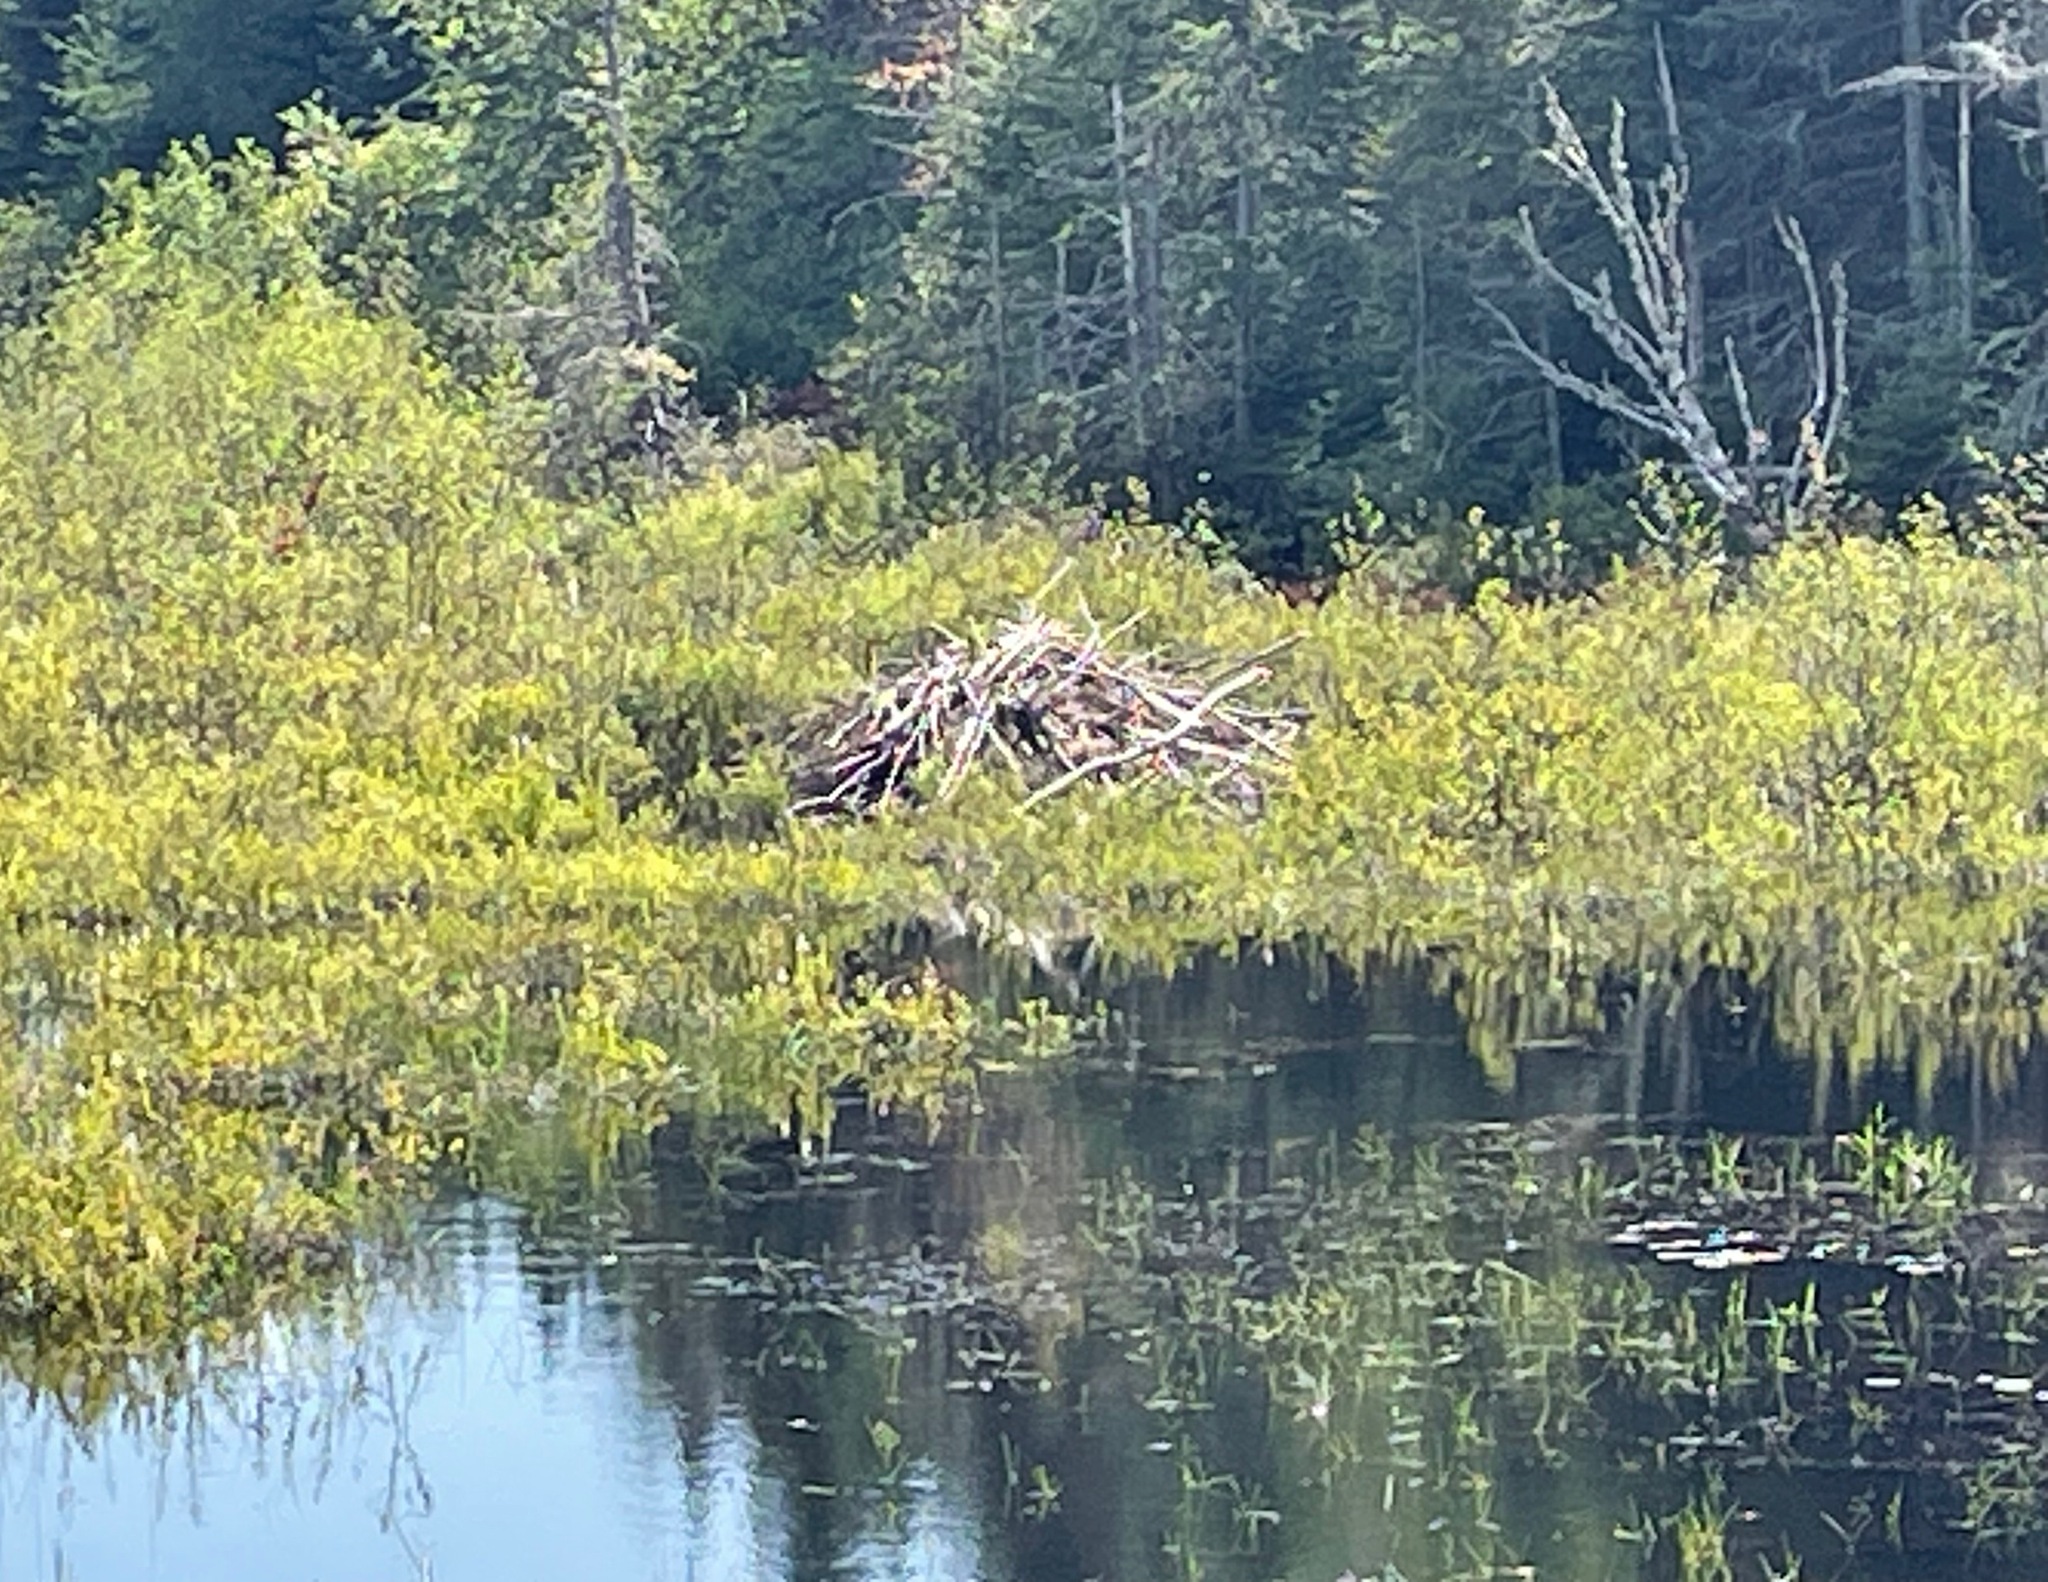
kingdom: Animalia
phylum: Chordata
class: Mammalia
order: Rodentia
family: Castoridae
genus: Castor
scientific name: Castor canadensis
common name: American beaver
